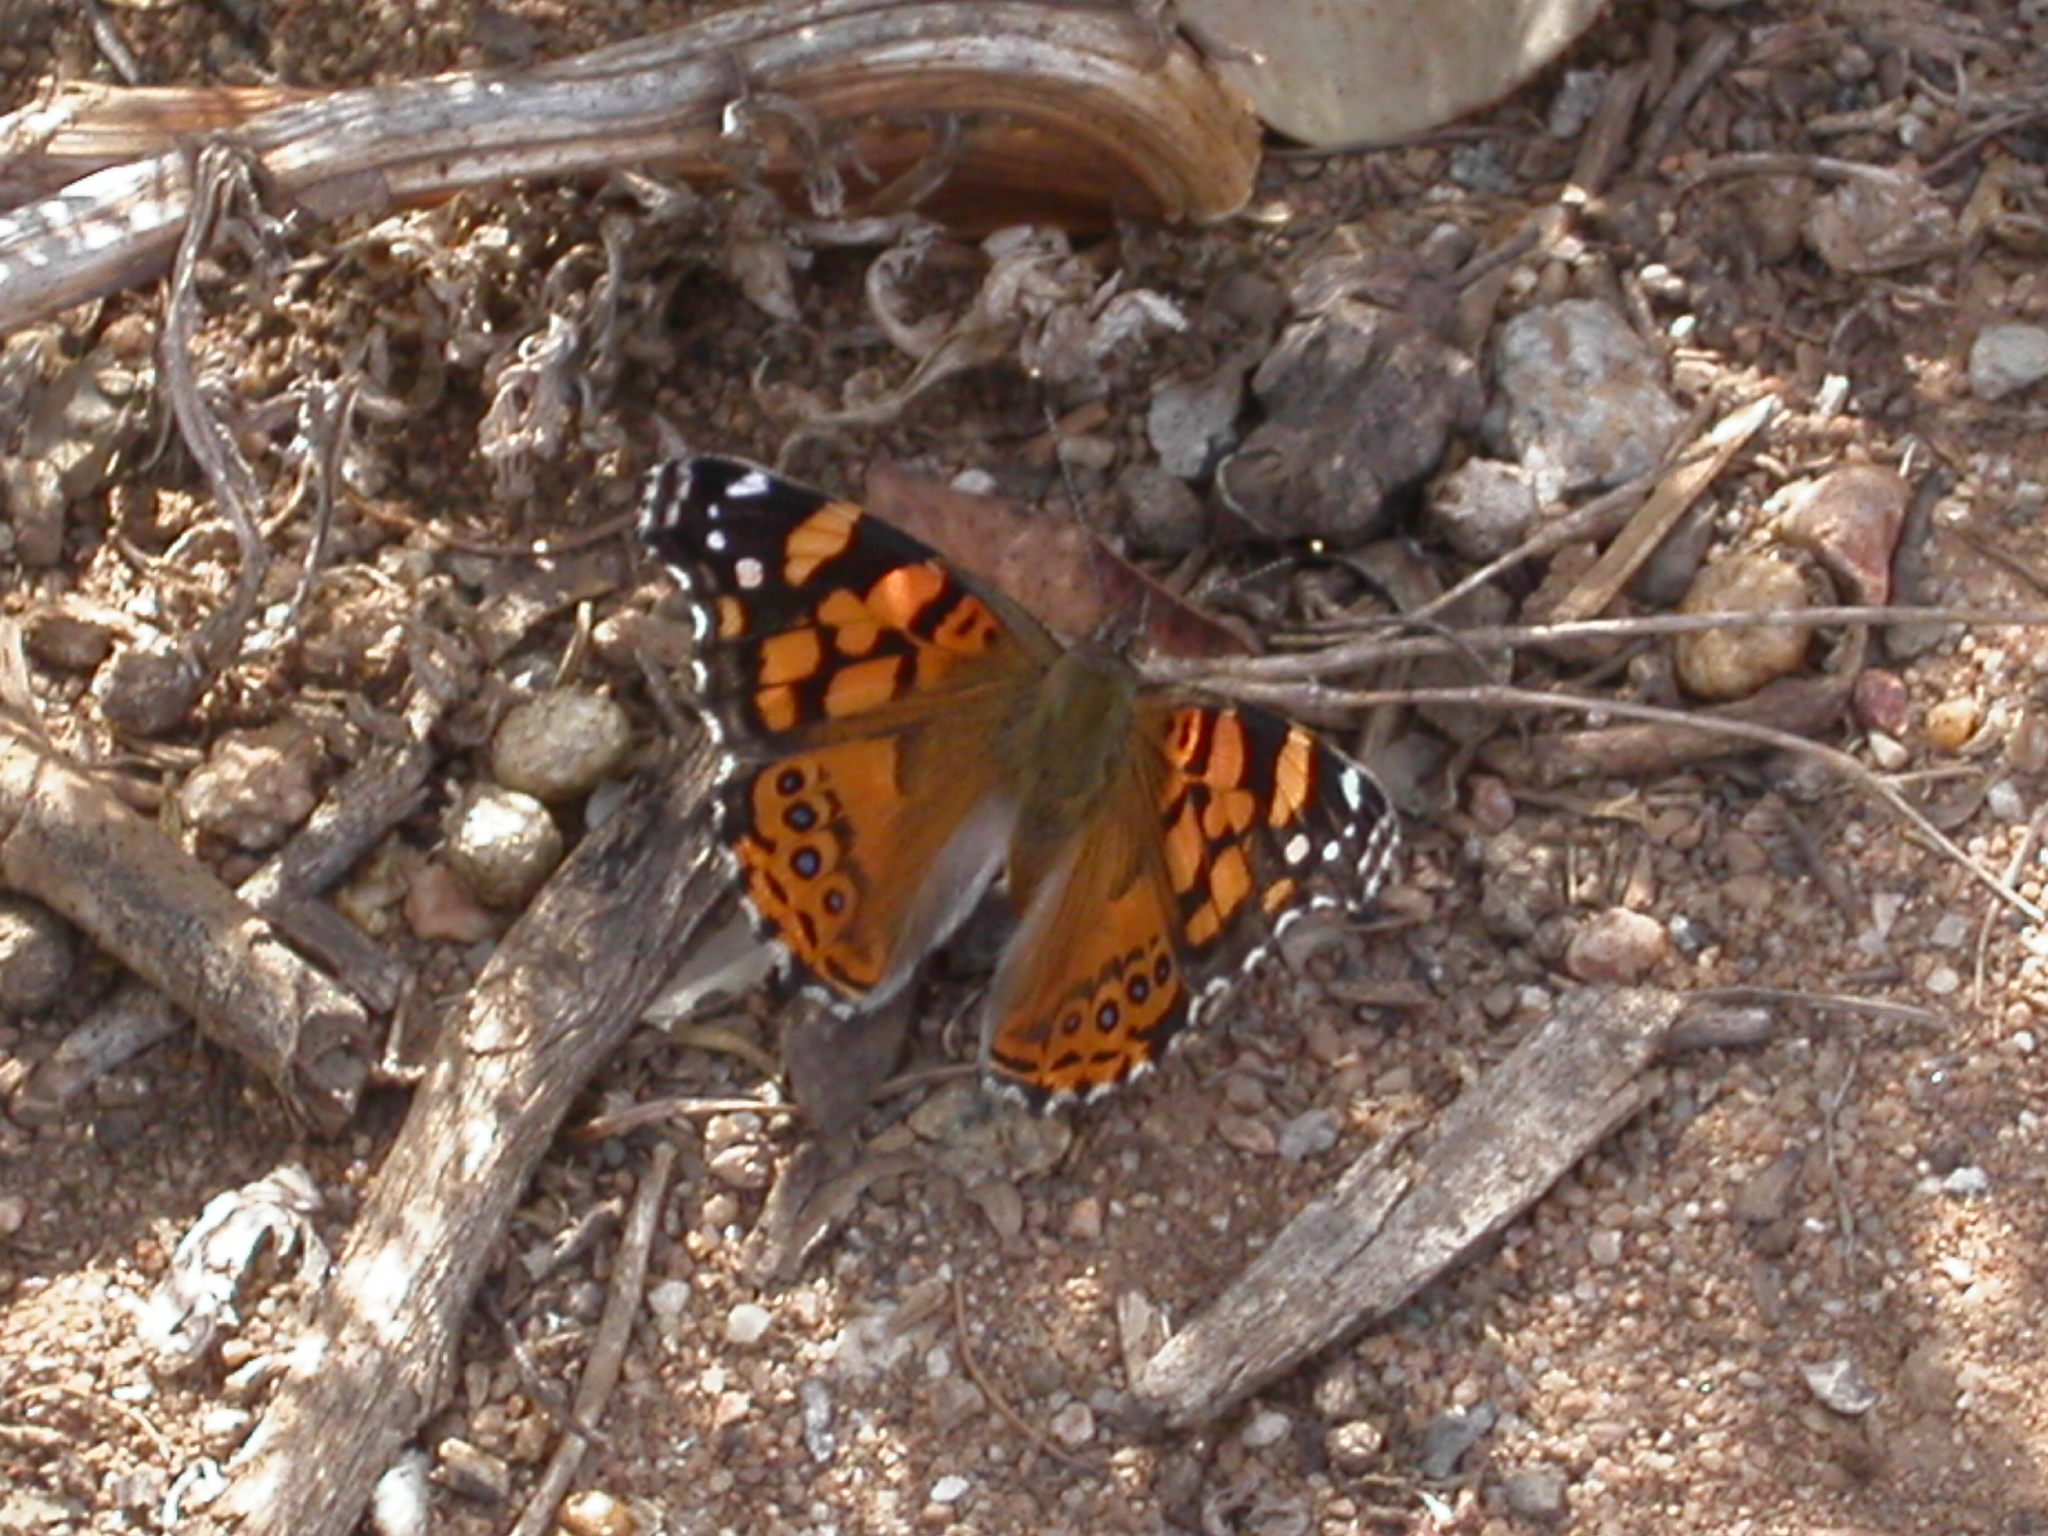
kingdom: Animalia
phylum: Arthropoda
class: Insecta
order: Lepidoptera
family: Nymphalidae
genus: Vanessa
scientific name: Vanessa annabella
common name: West coast lady
